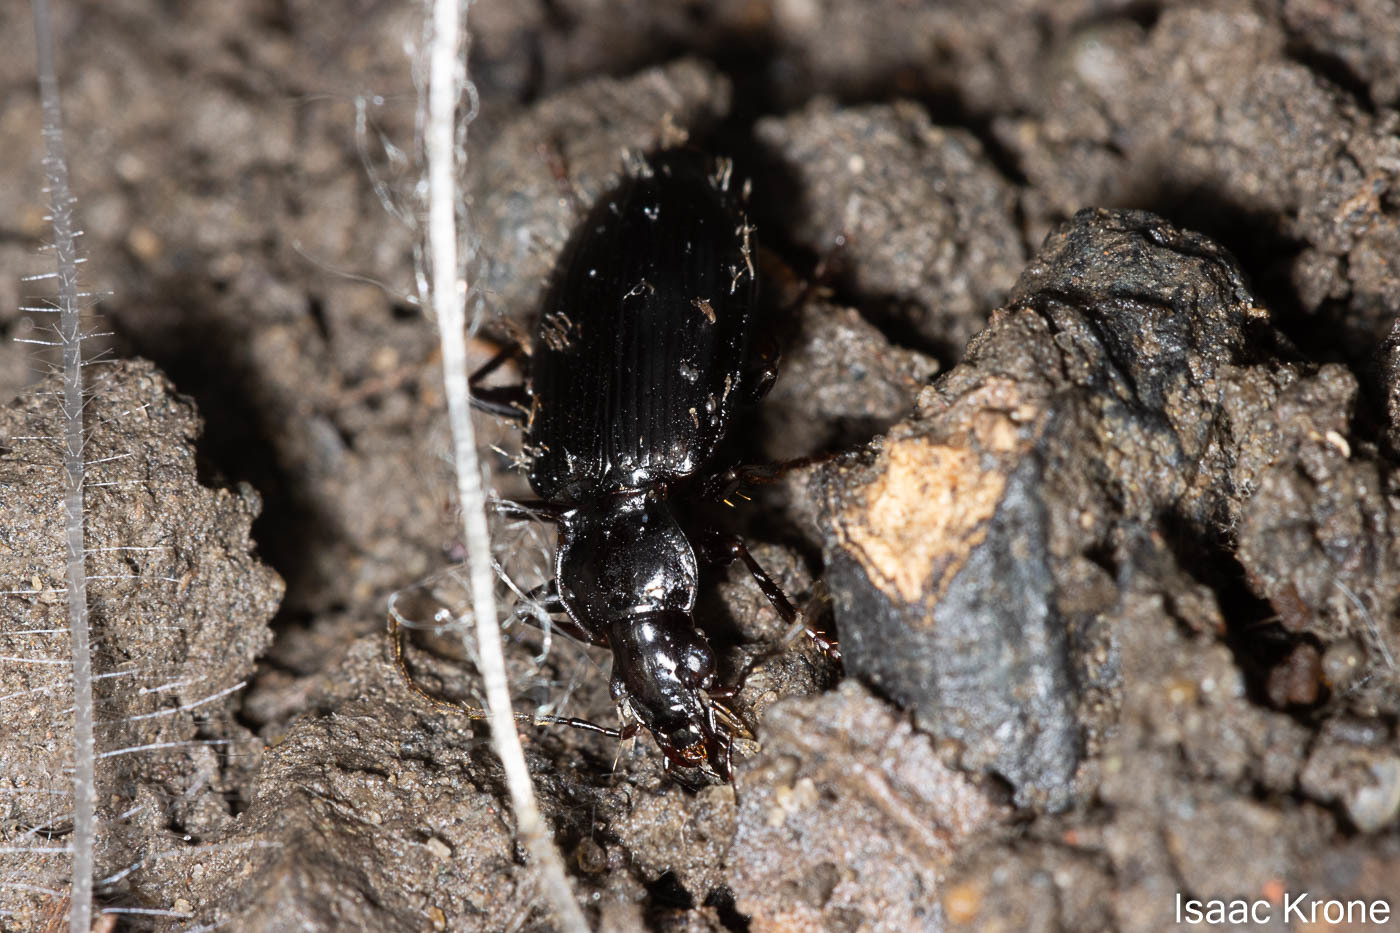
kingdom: Animalia
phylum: Arthropoda
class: Insecta
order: Coleoptera
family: Carabidae
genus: Platynus
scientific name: Platynus brunneomarginatus
